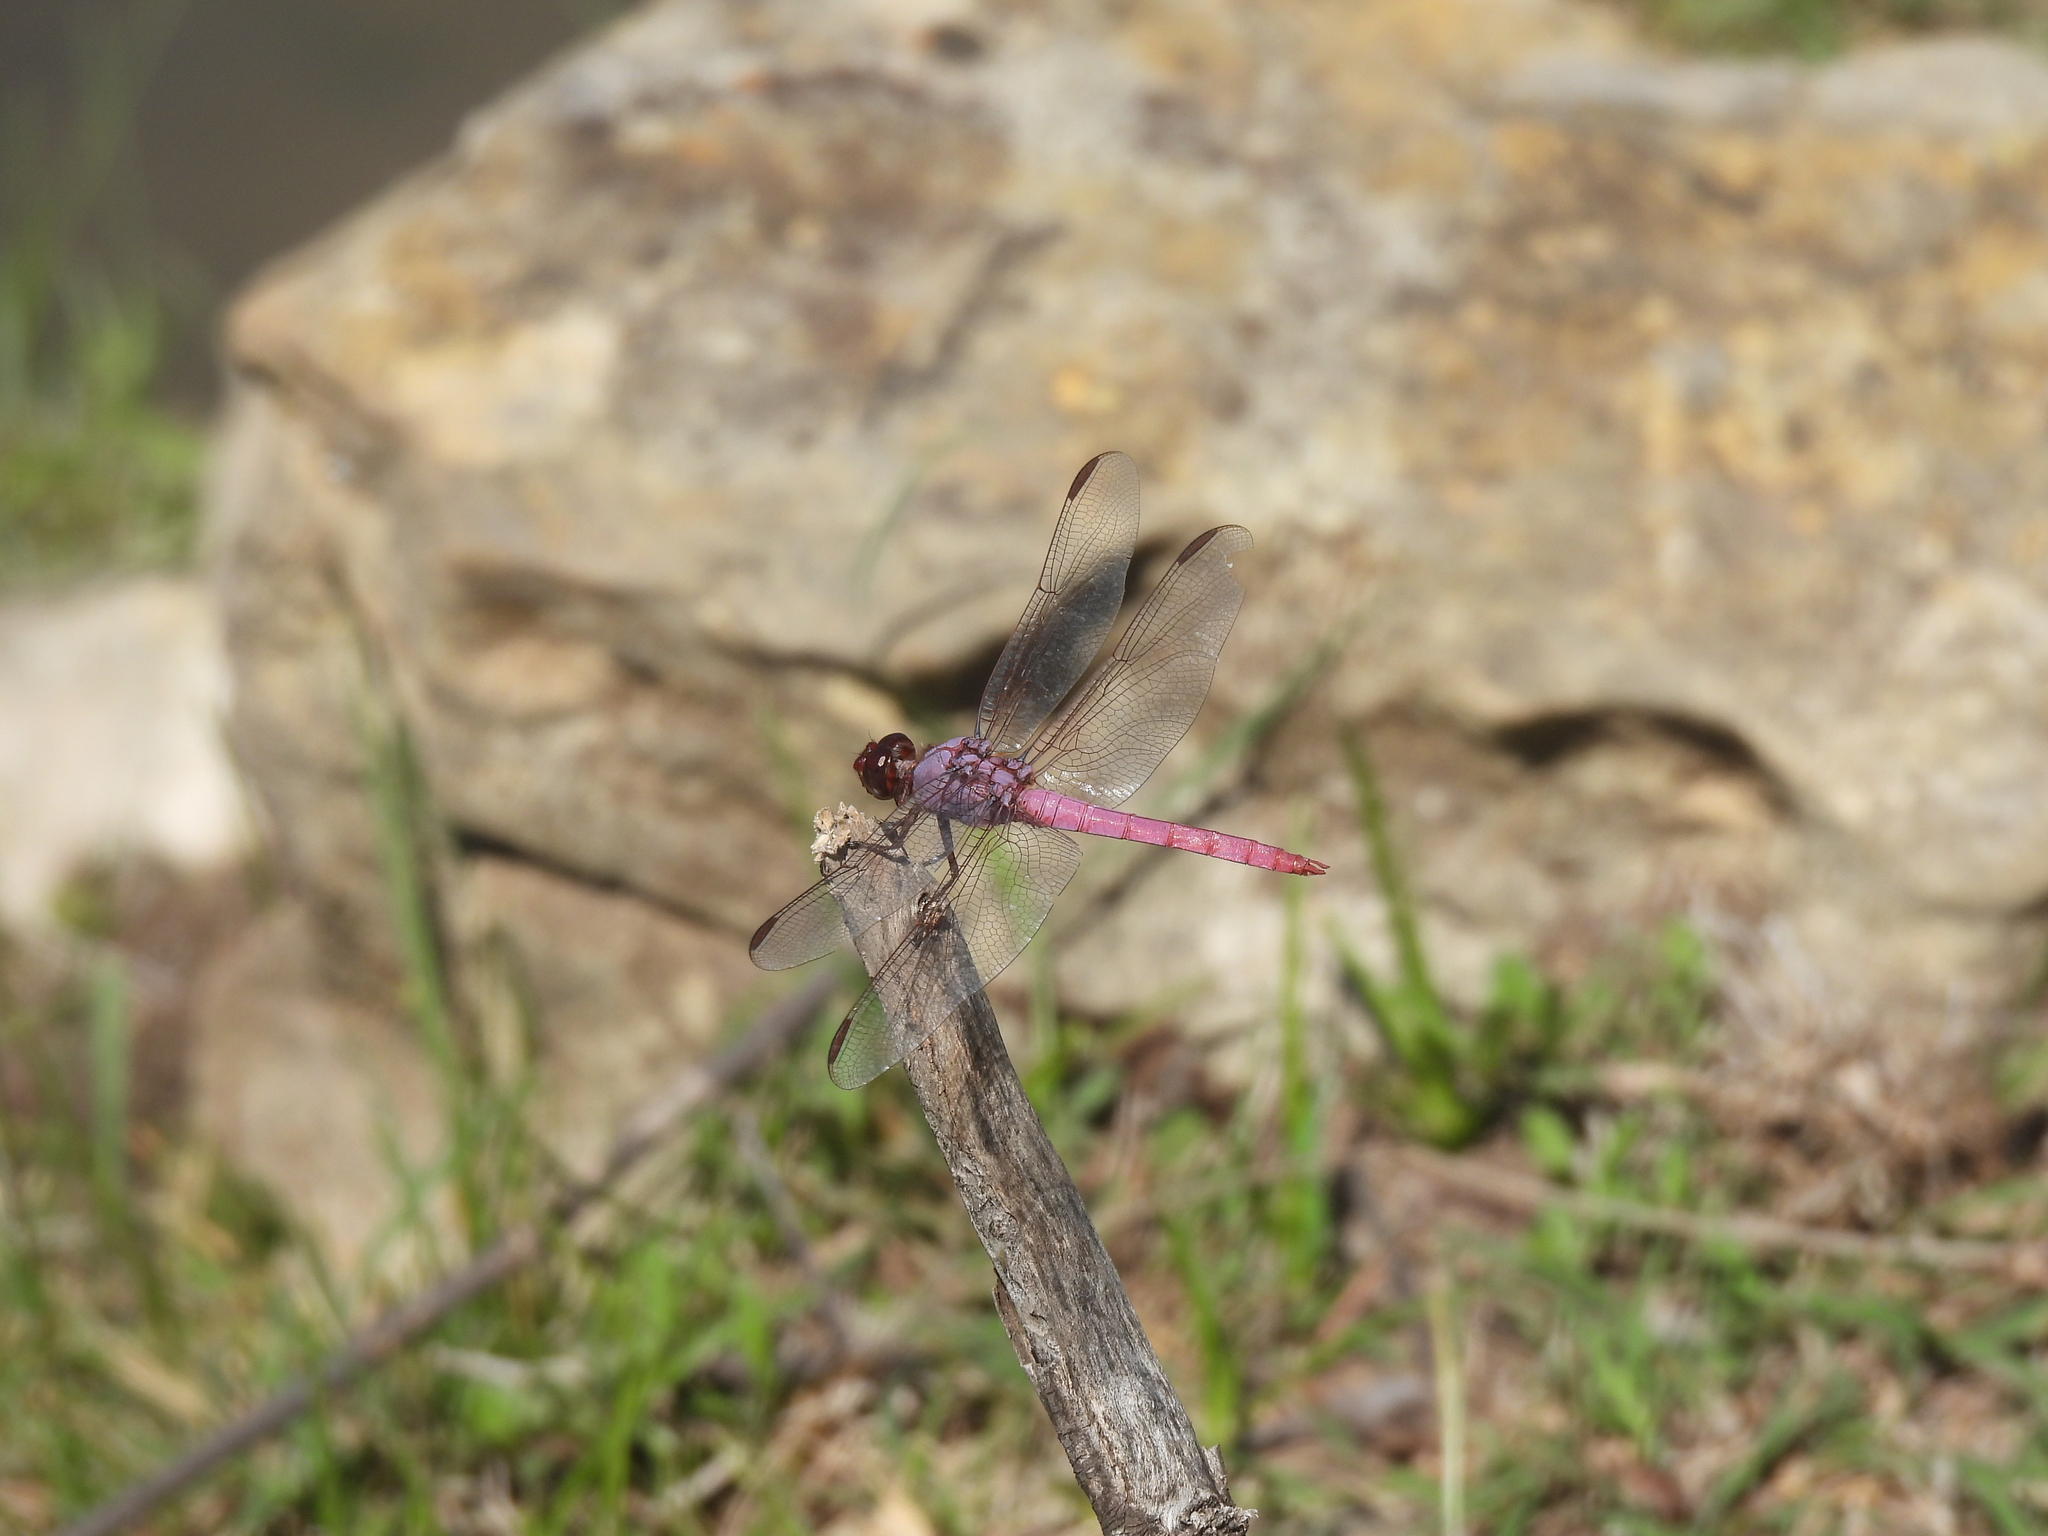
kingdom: Animalia
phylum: Arthropoda
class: Insecta
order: Odonata
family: Libellulidae
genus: Orthemis
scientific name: Orthemis ferruginea
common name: Roseate skimmer
